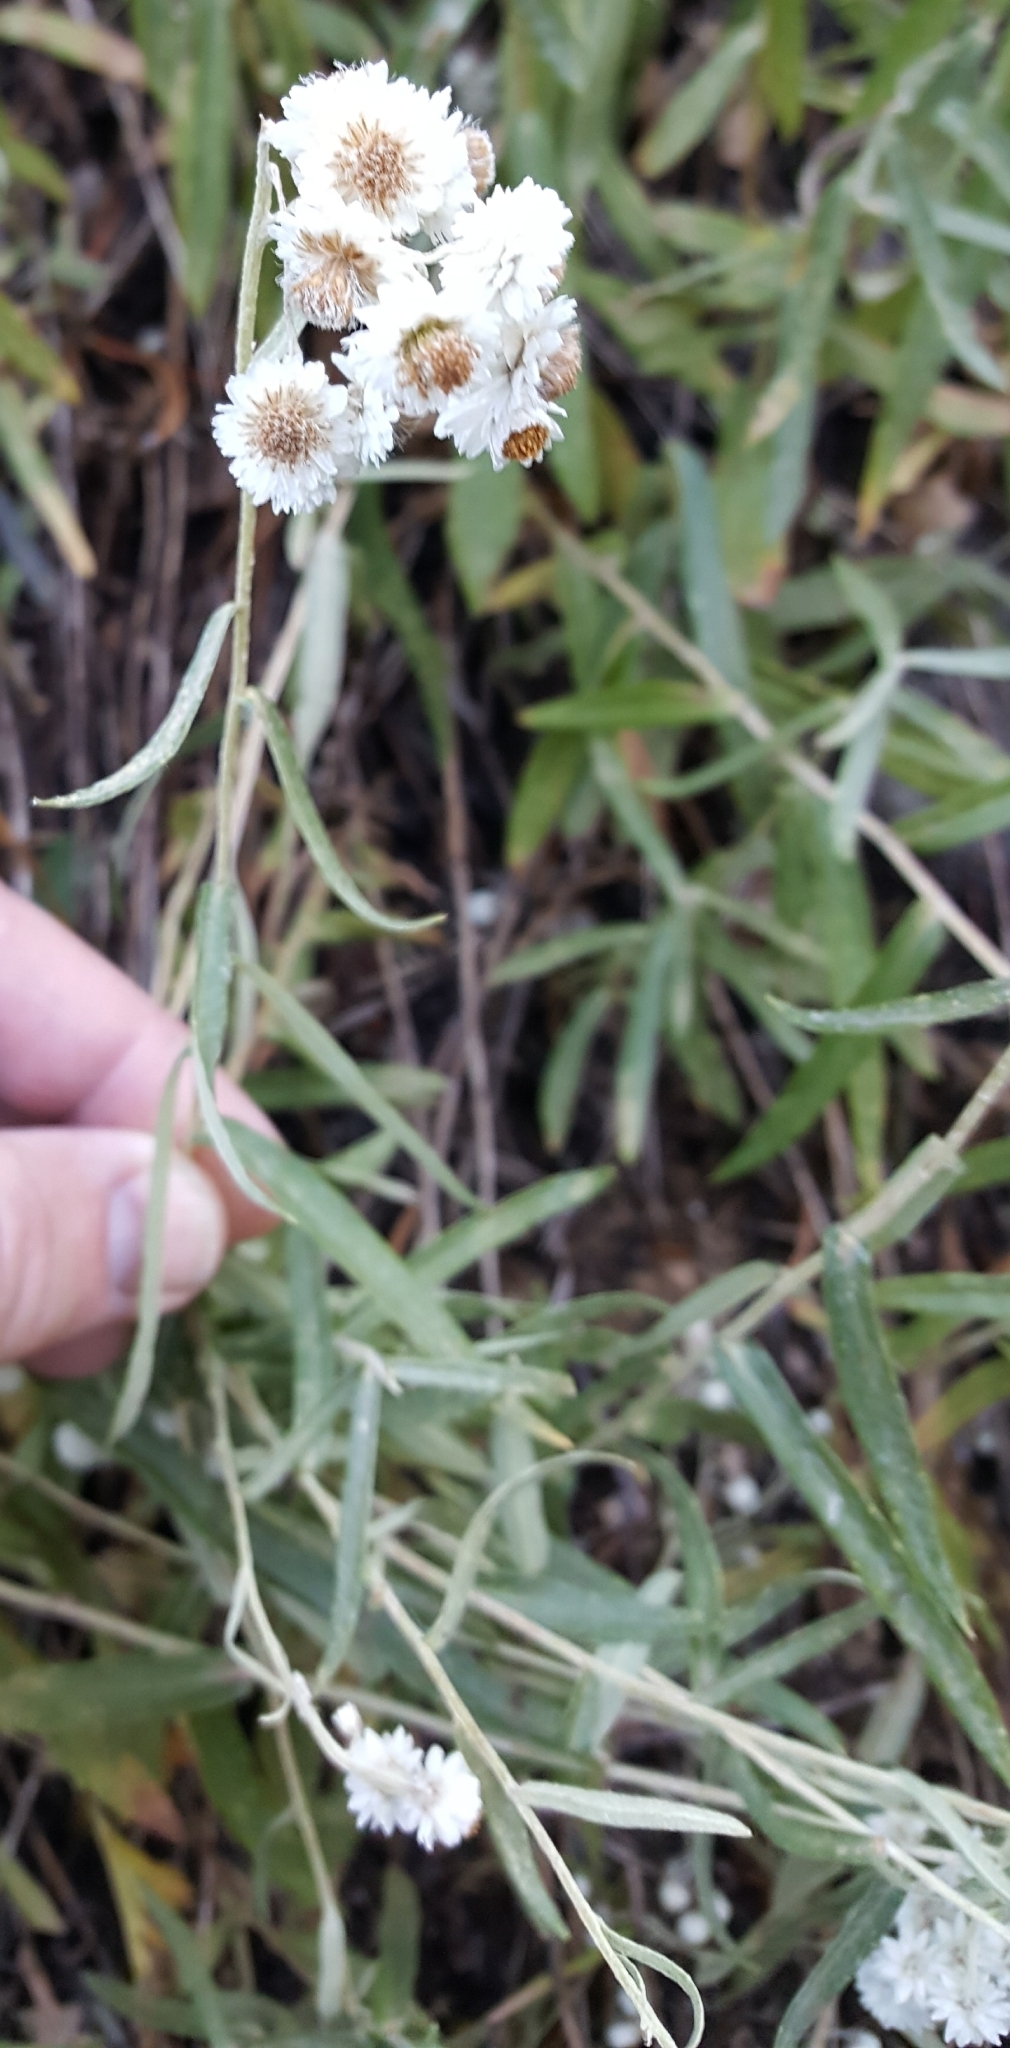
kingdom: Plantae
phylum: Tracheophyta
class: Magnoliopsida
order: Asterales
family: Asteraceae
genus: Anaphalis
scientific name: Anaphalis margaritacea
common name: Pearly everlasting
